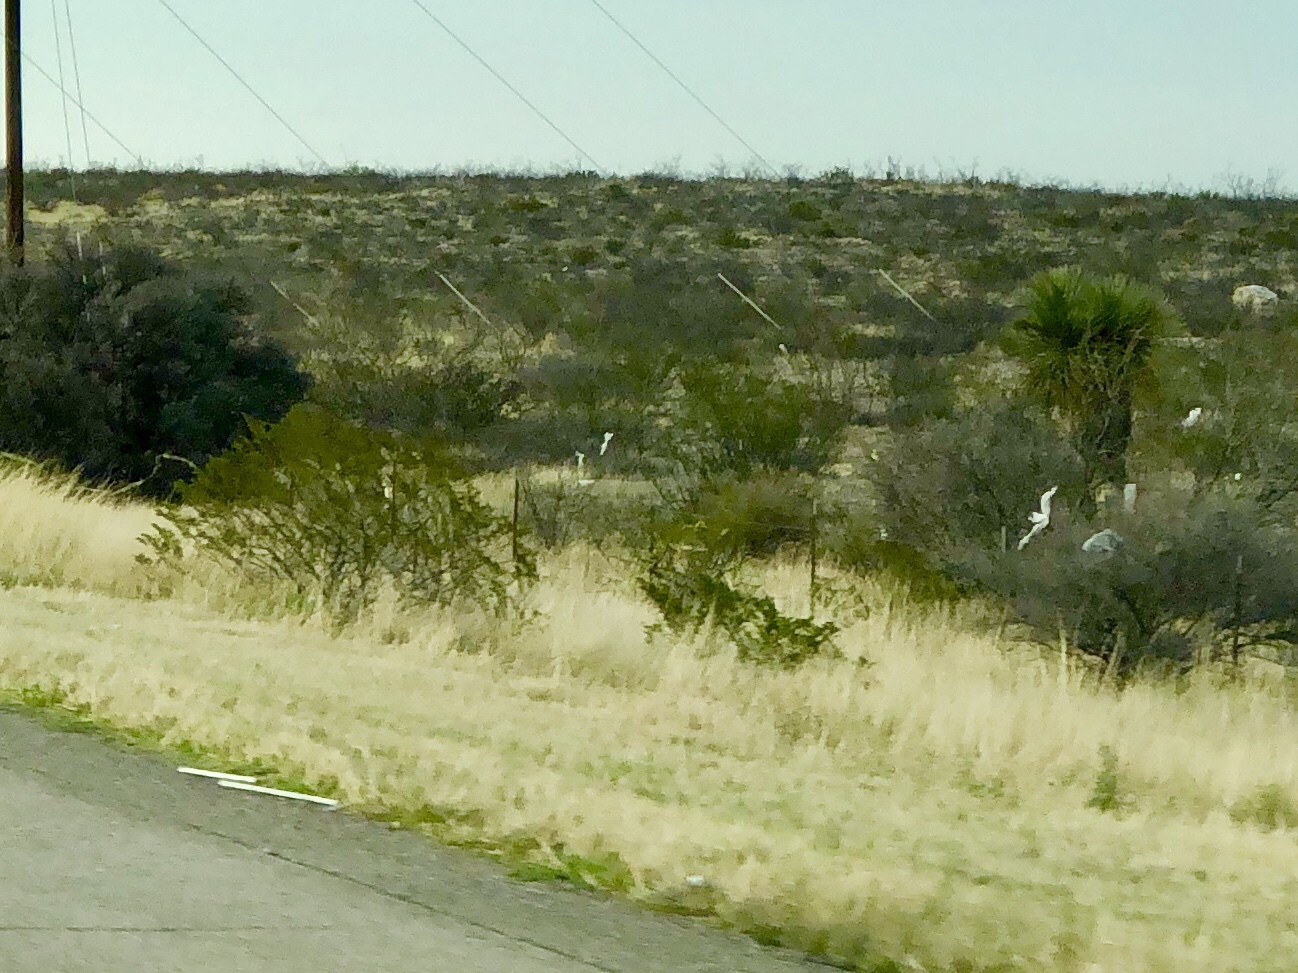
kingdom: Plantae
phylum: Tracheophyta
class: Magnoliopsida
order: Zygophyllales
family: Zygophyllaceae
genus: Larrea
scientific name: Larrea tridentata
